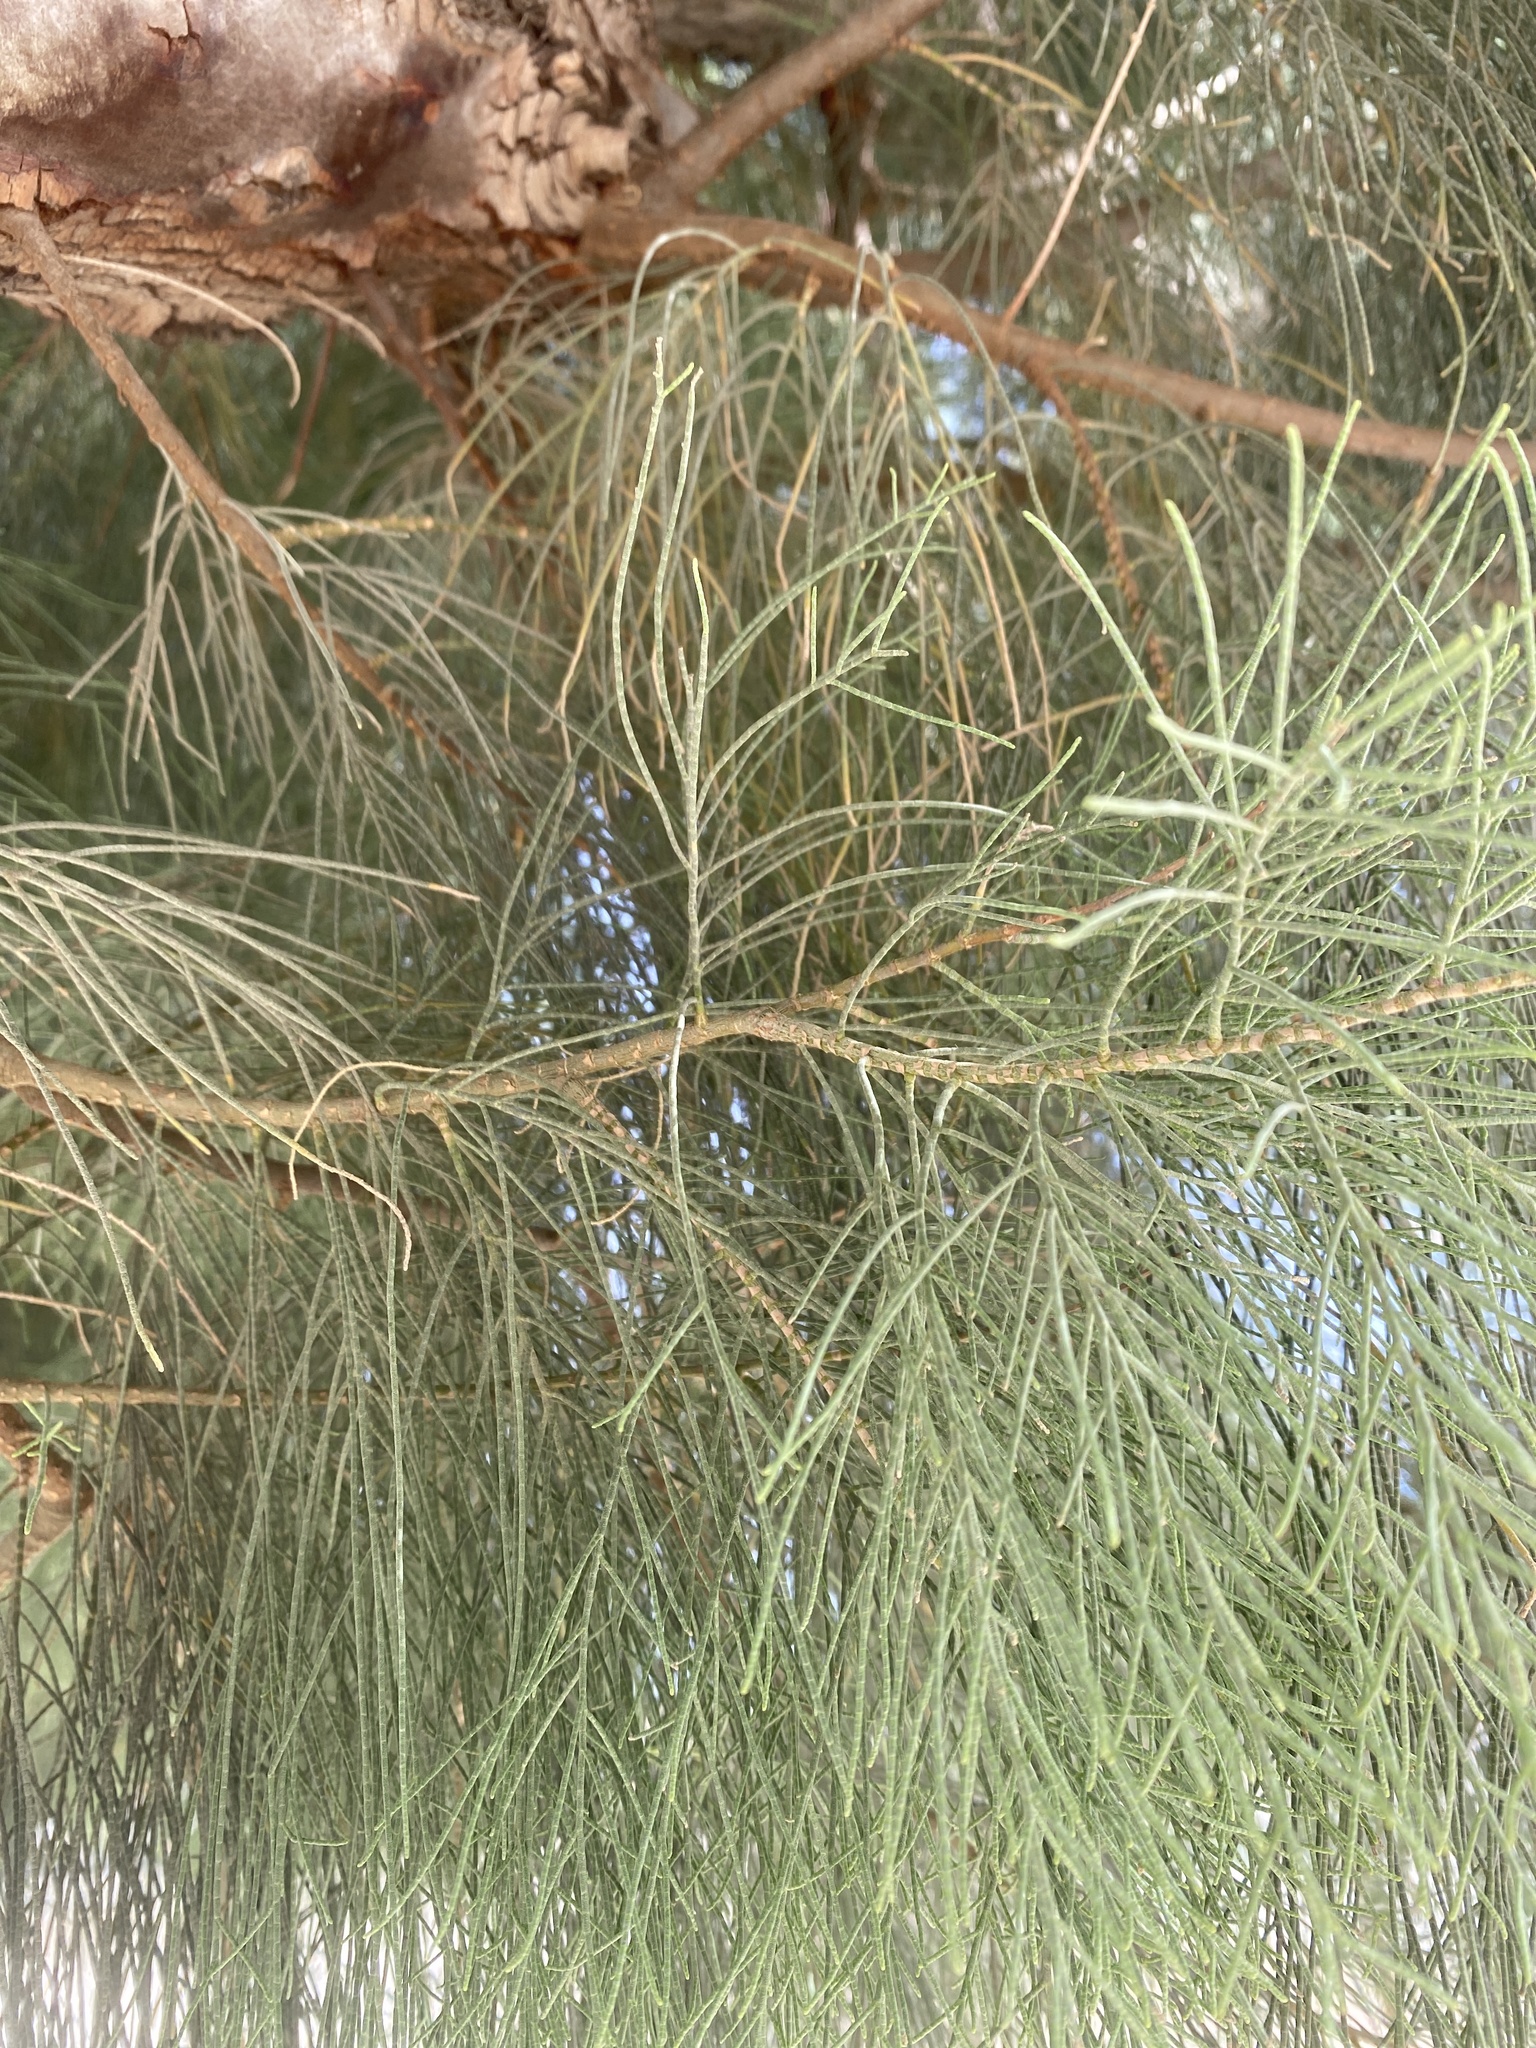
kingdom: Plantae
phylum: Tracheophyta
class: Magnoliopsida
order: Caryophyllales
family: Tamaricaceae
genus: Tamarix
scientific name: Tamarix aphylla
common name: Athel tamarisk
